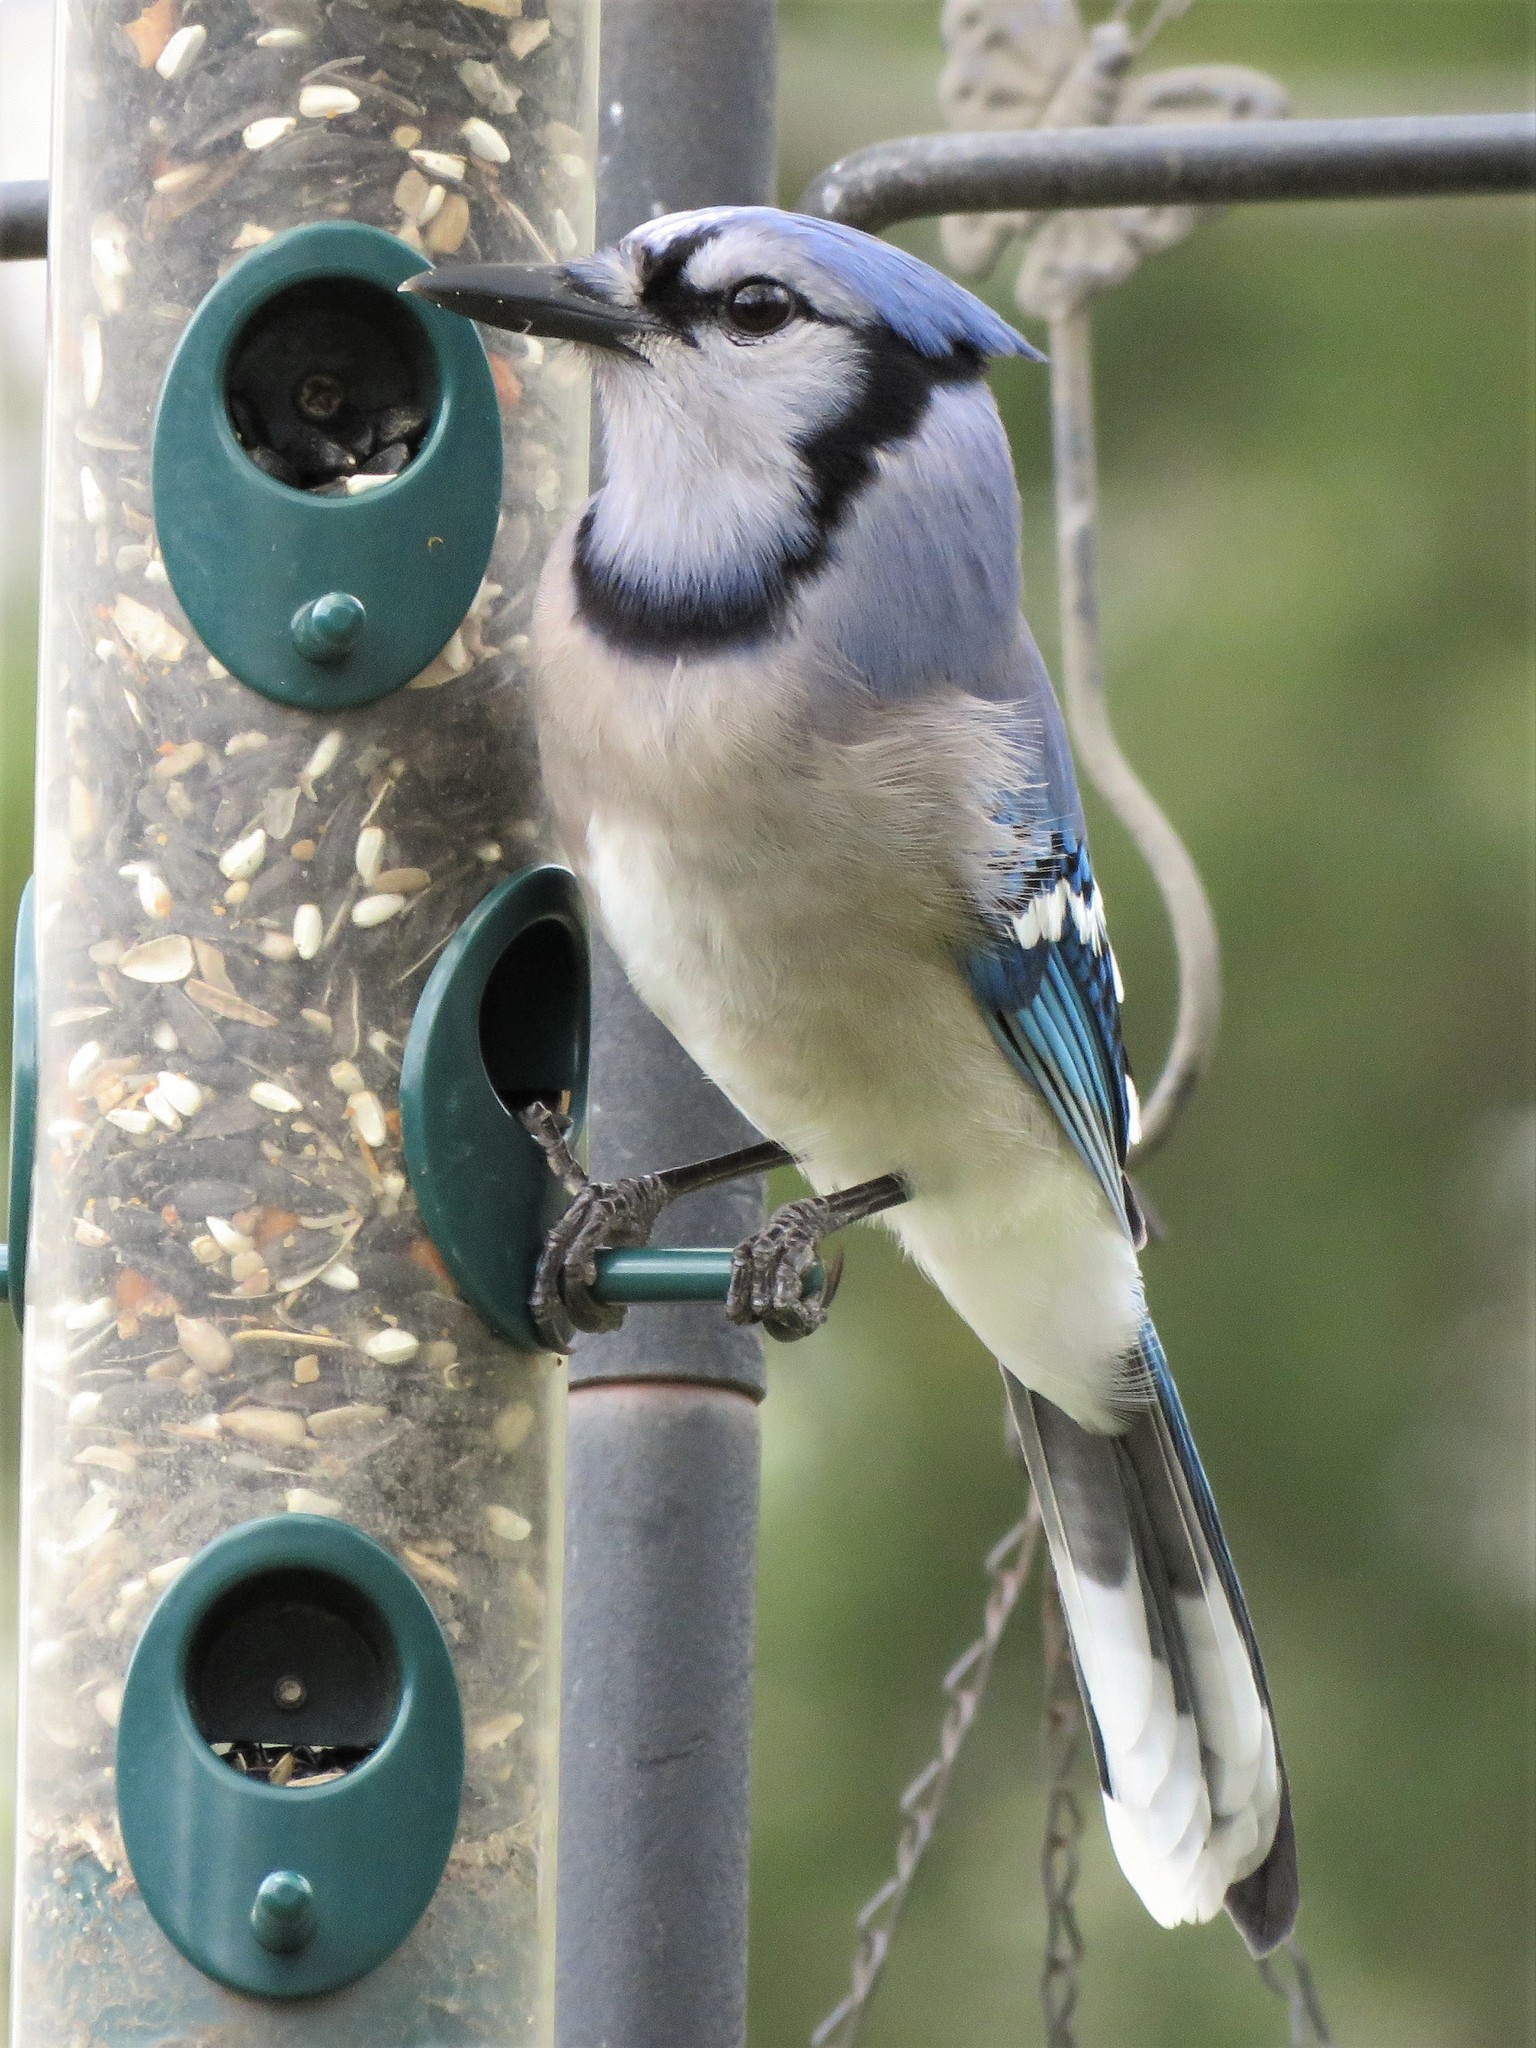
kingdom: Animalia
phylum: Chordata
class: Aves
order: Passeriformes
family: Corvidae
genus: Cyanocitta
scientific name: Cyanocitta cristata
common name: Blue jay
